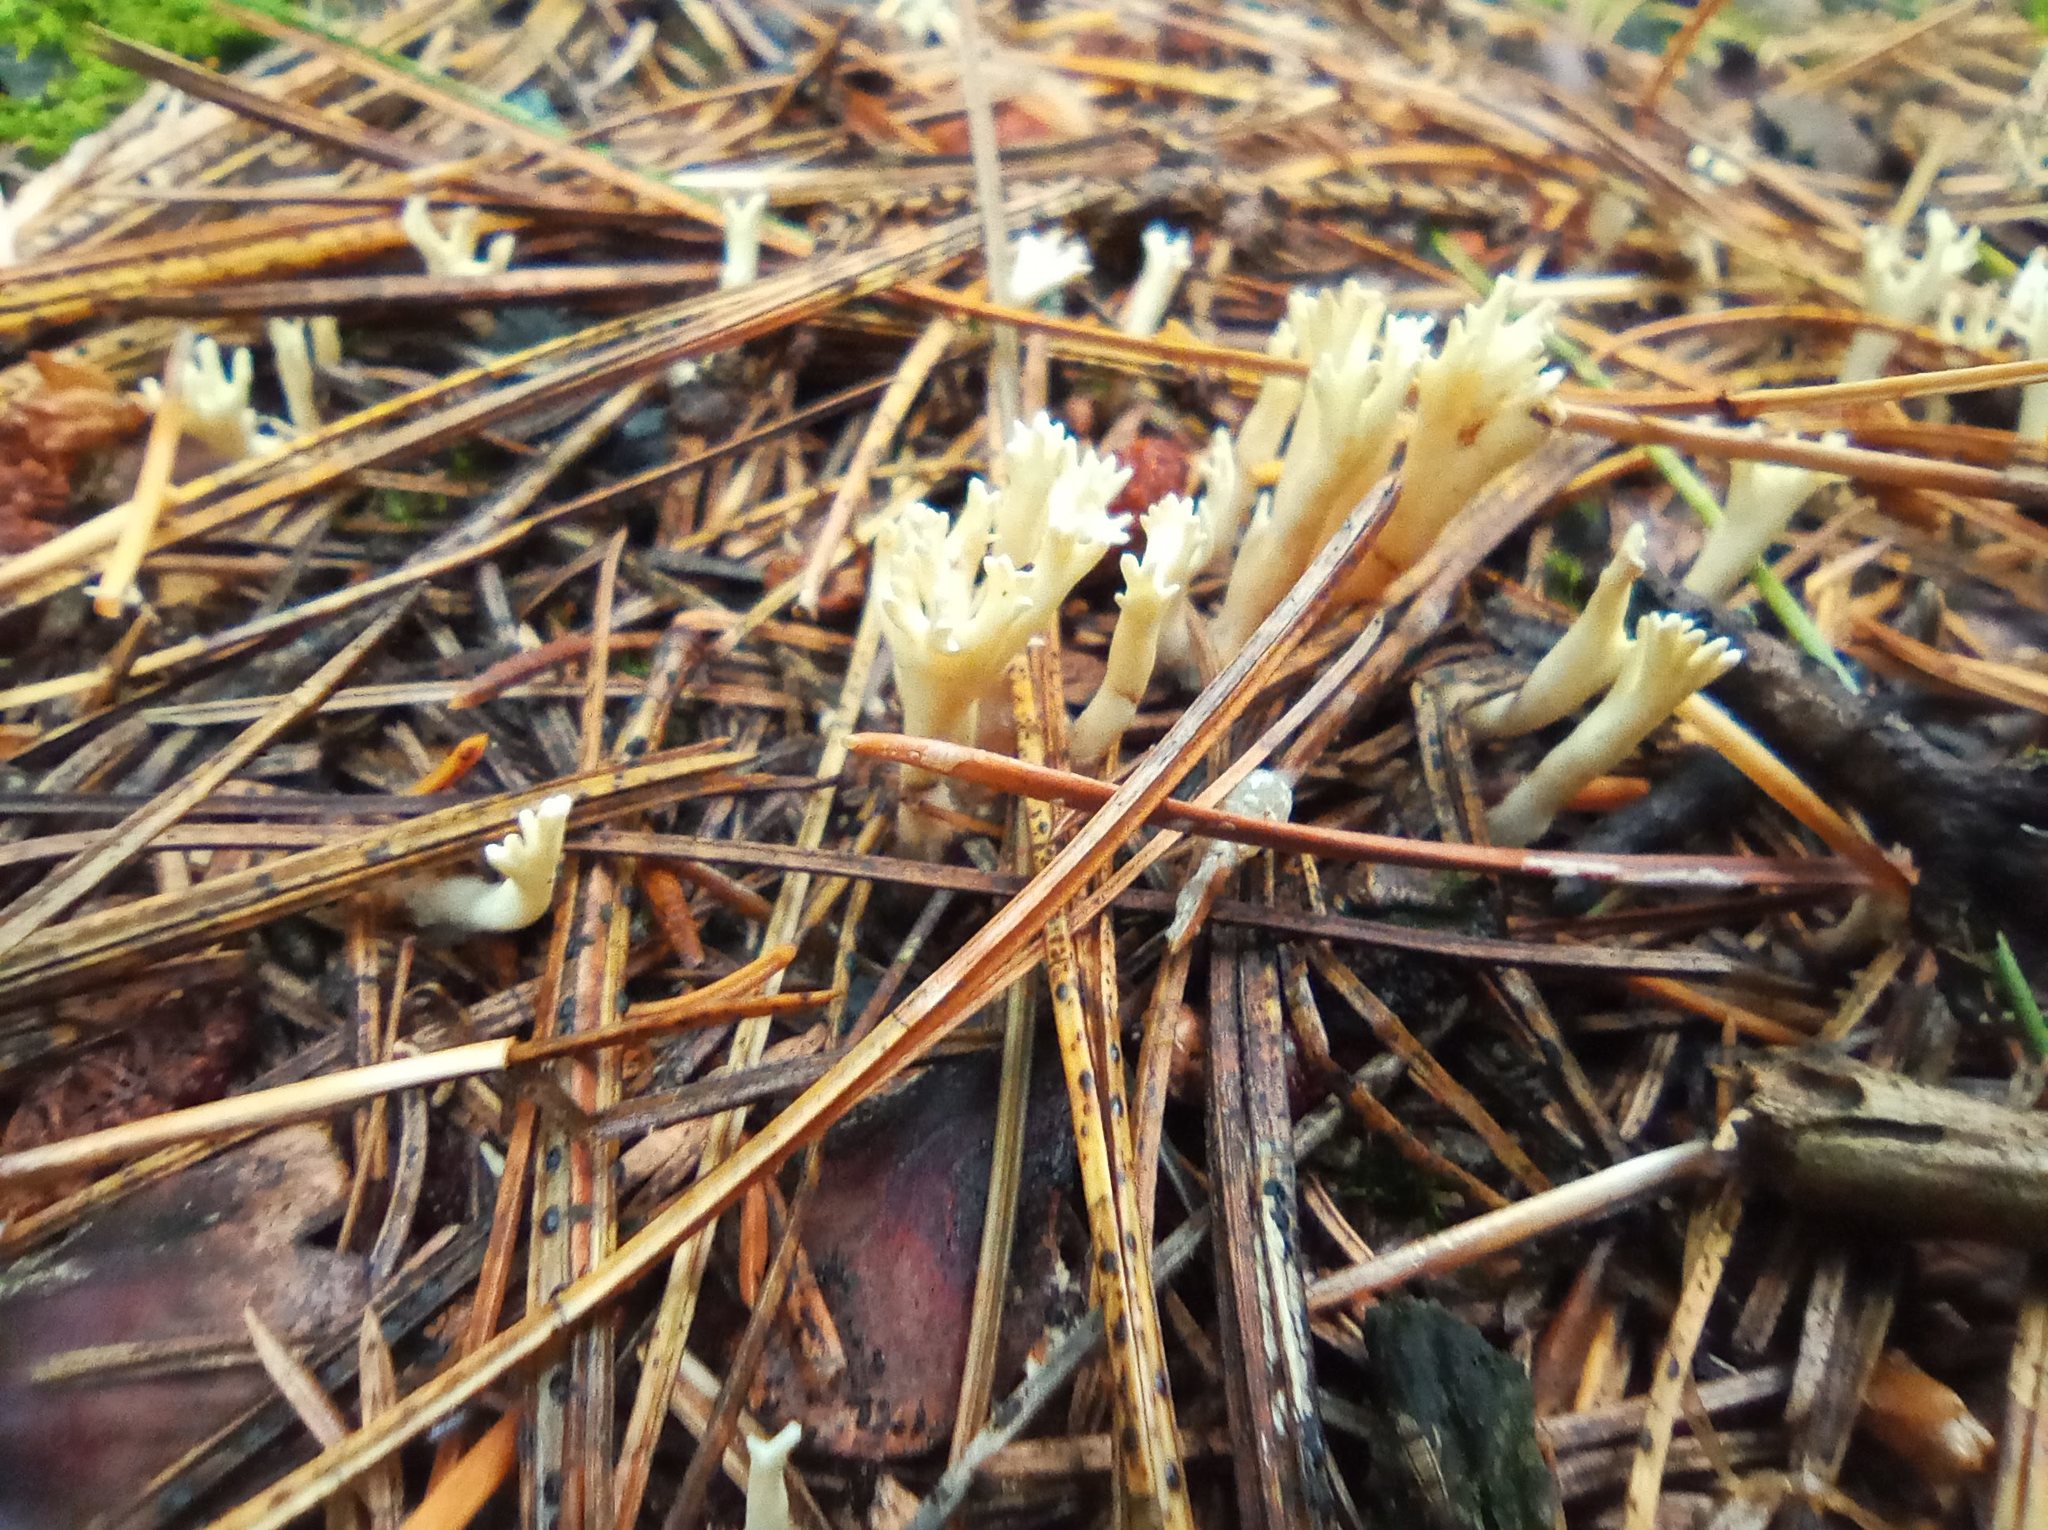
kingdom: Fungi
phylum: Basidiomycota
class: Agaricomycetes
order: Cantharellales
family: Hydnaceae
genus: Clavulina
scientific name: Clavulina coralloides
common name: Crested coral
